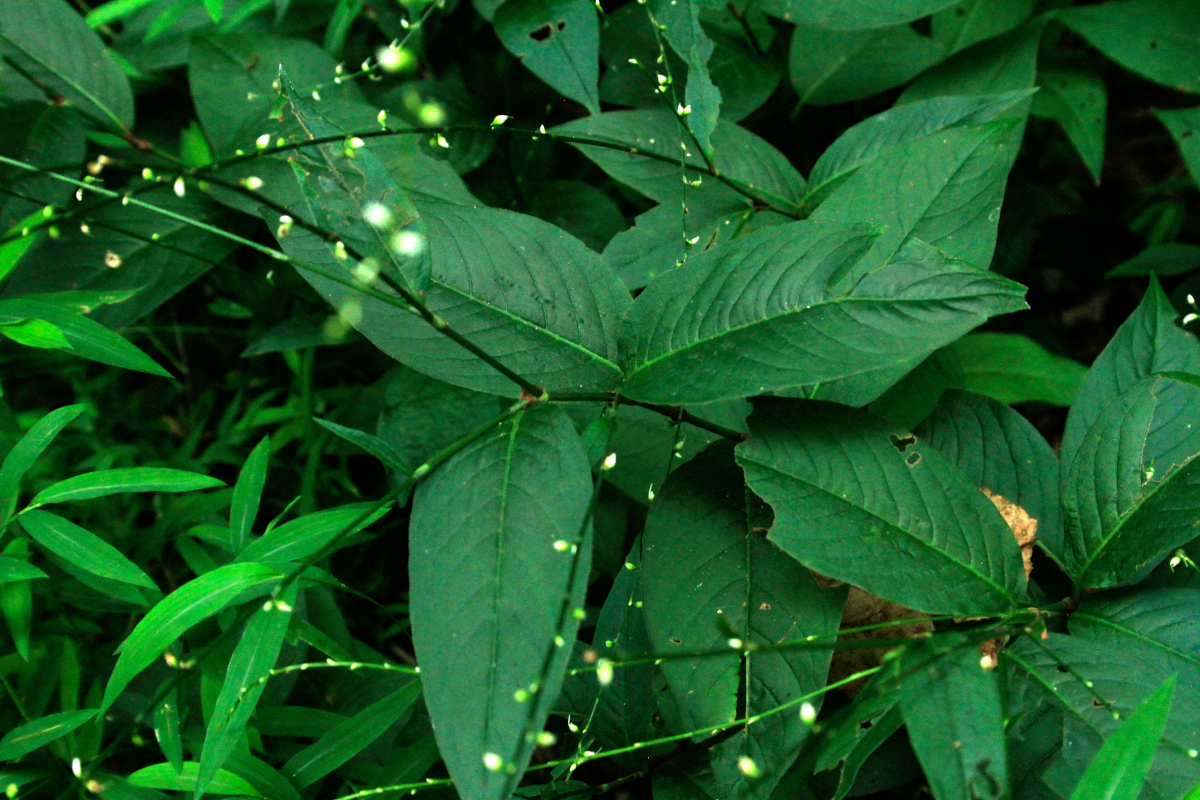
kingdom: Plantae
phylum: Tracheophyta
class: Magnoliopsida
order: Caryophyllales
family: Polygonaceae
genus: Persicaria
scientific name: Persicaria virginiana
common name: Jumpseed
